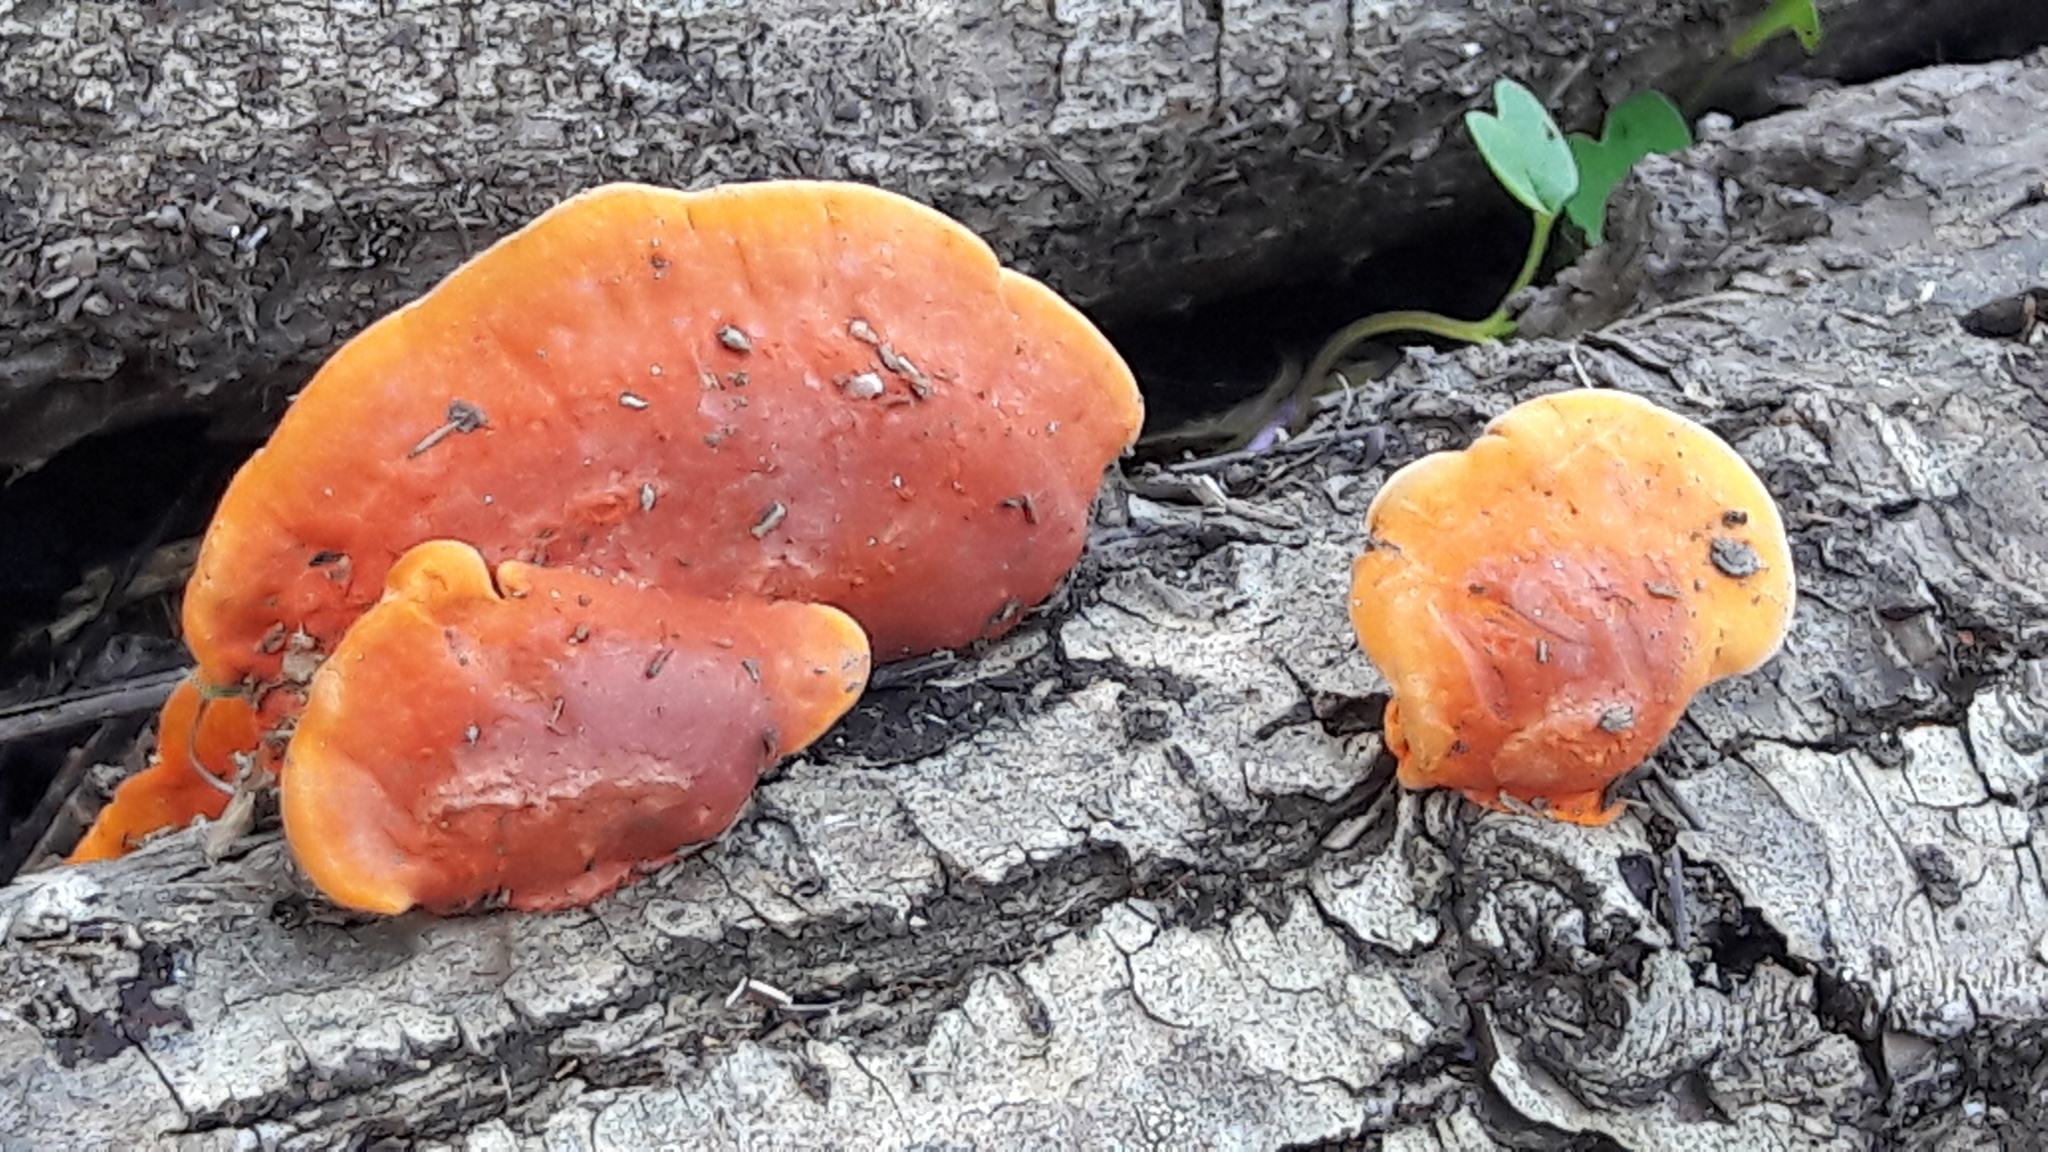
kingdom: Fungi
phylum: Basidiomycota
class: Agaricomycetes
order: Polyporales
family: Polyporaceae
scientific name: Polyporaceae
